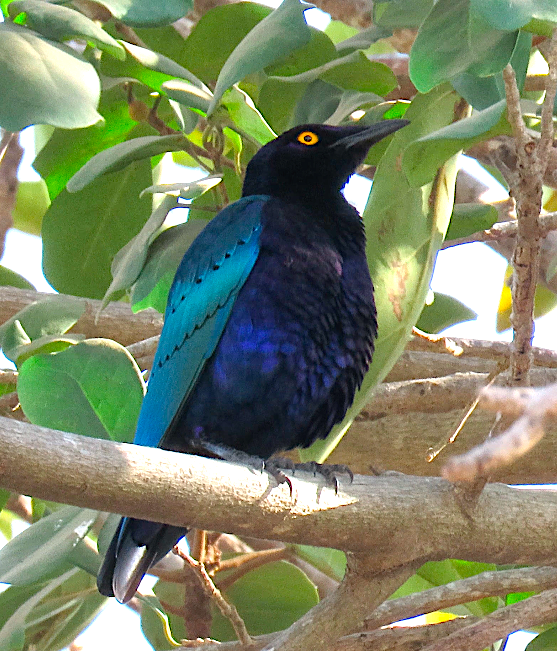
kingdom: Animalia
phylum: Chordata
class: Aves
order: Passeriformes
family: Sturnidae
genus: Lamprotornis
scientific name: Lamprotornis purpureus
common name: Purple starling
